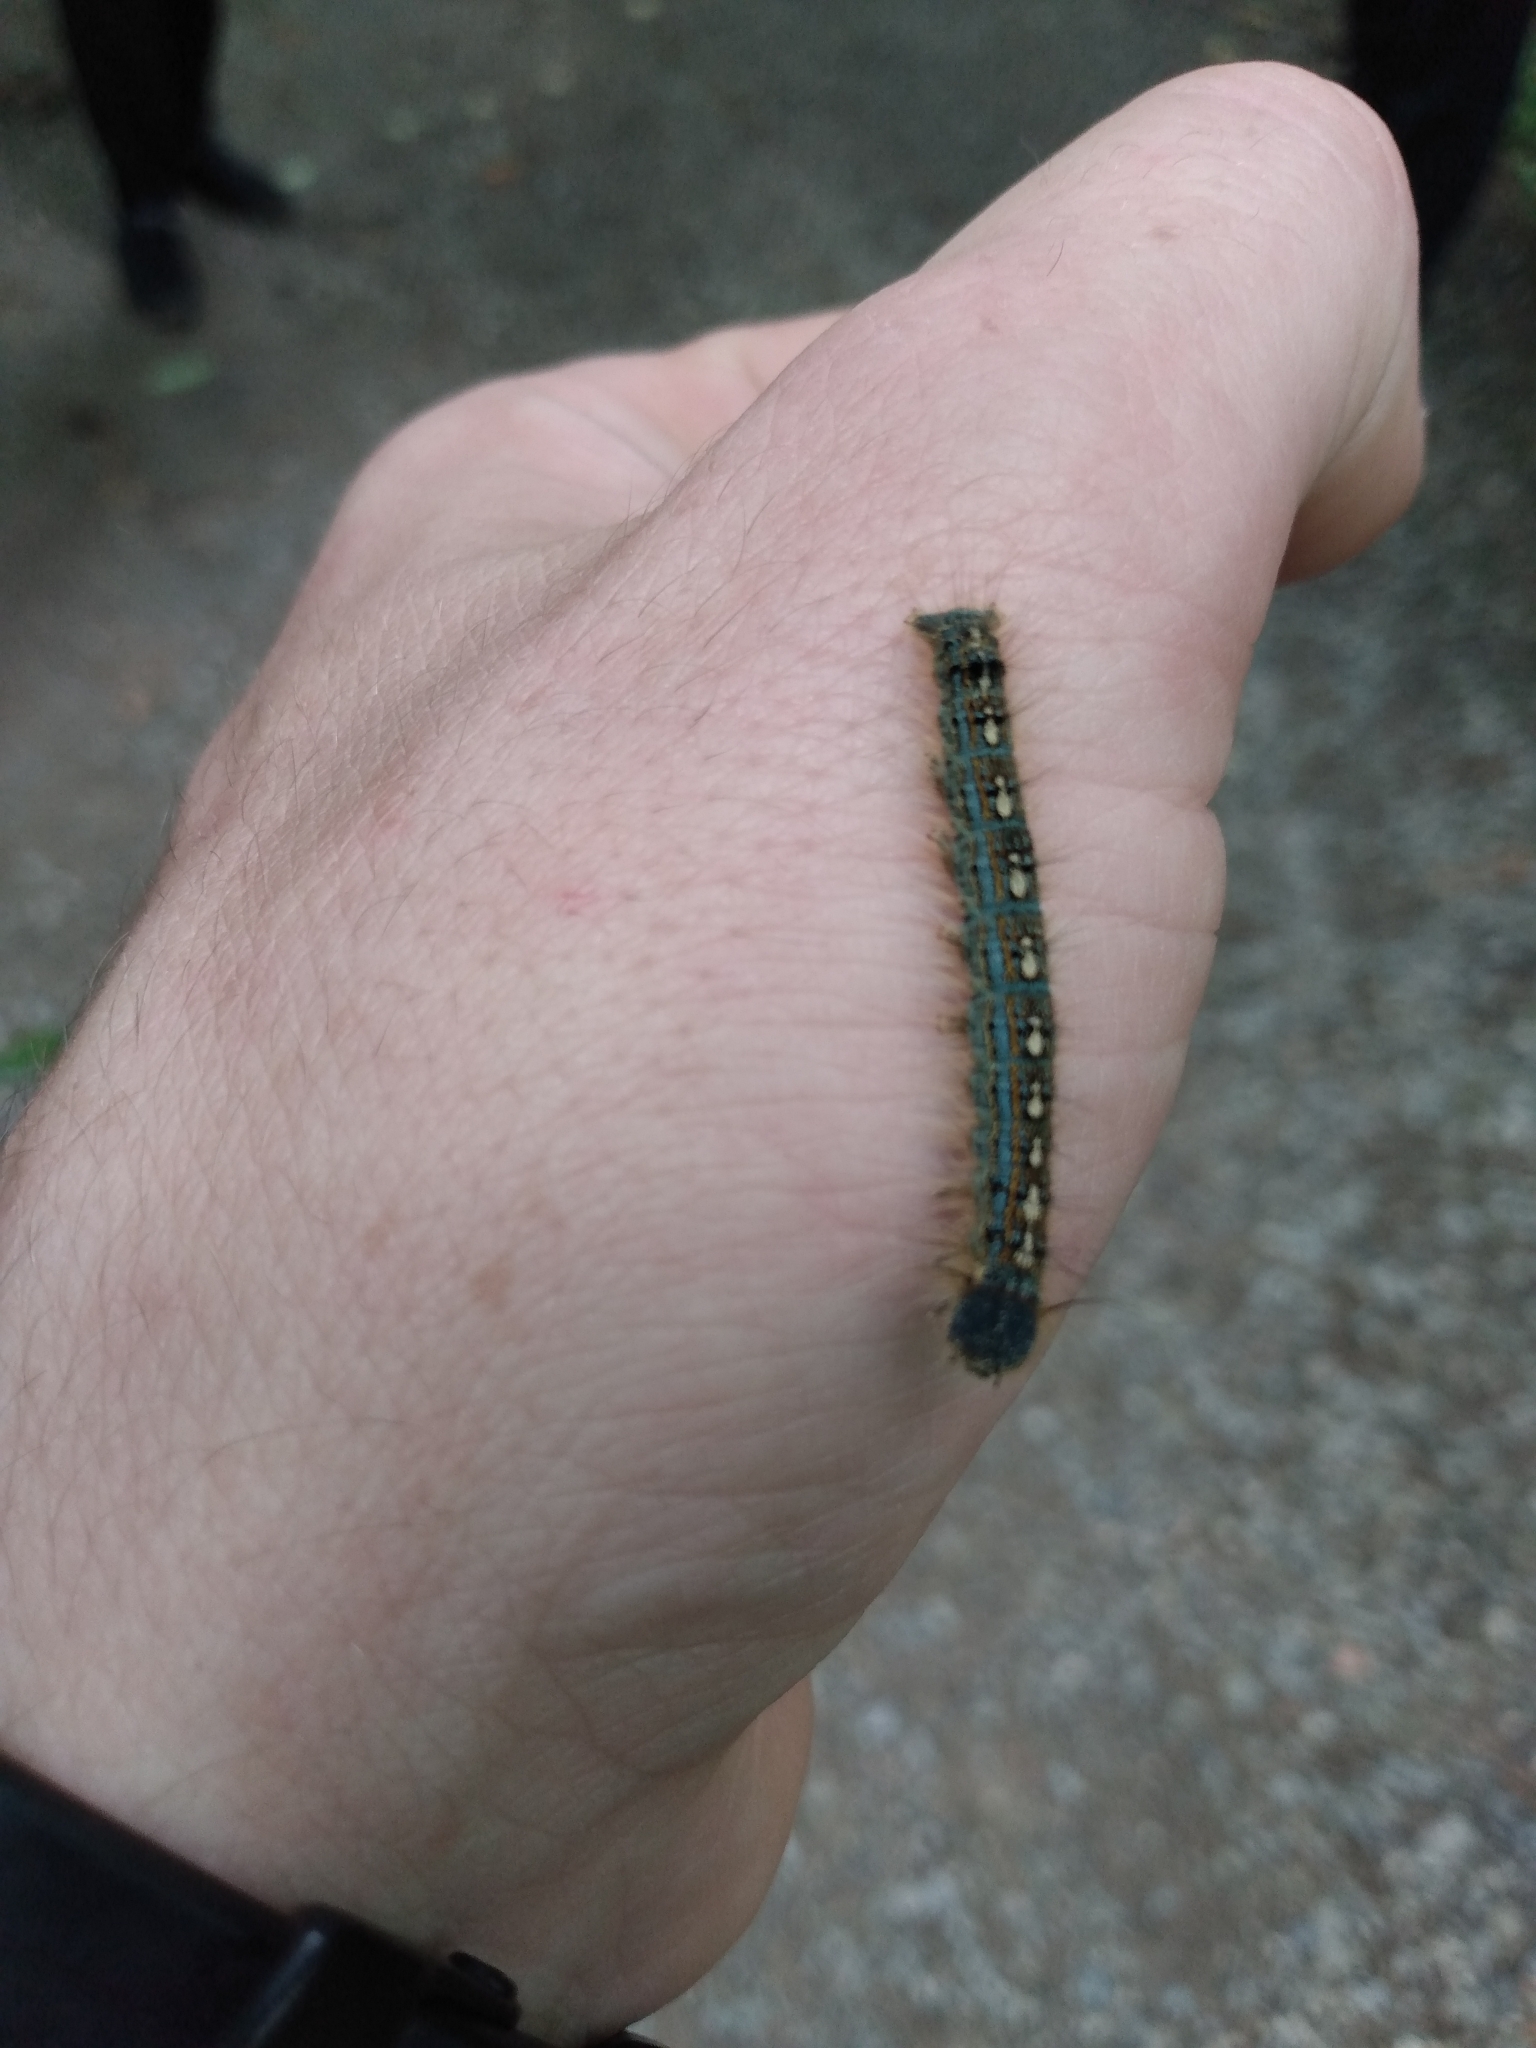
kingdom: Animalia
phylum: Arthropoda
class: Insecta
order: Lepidoptera
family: Lasiocampidae
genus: Malacosoma
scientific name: Malacosoma disstria
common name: Forest tent caterpillar
